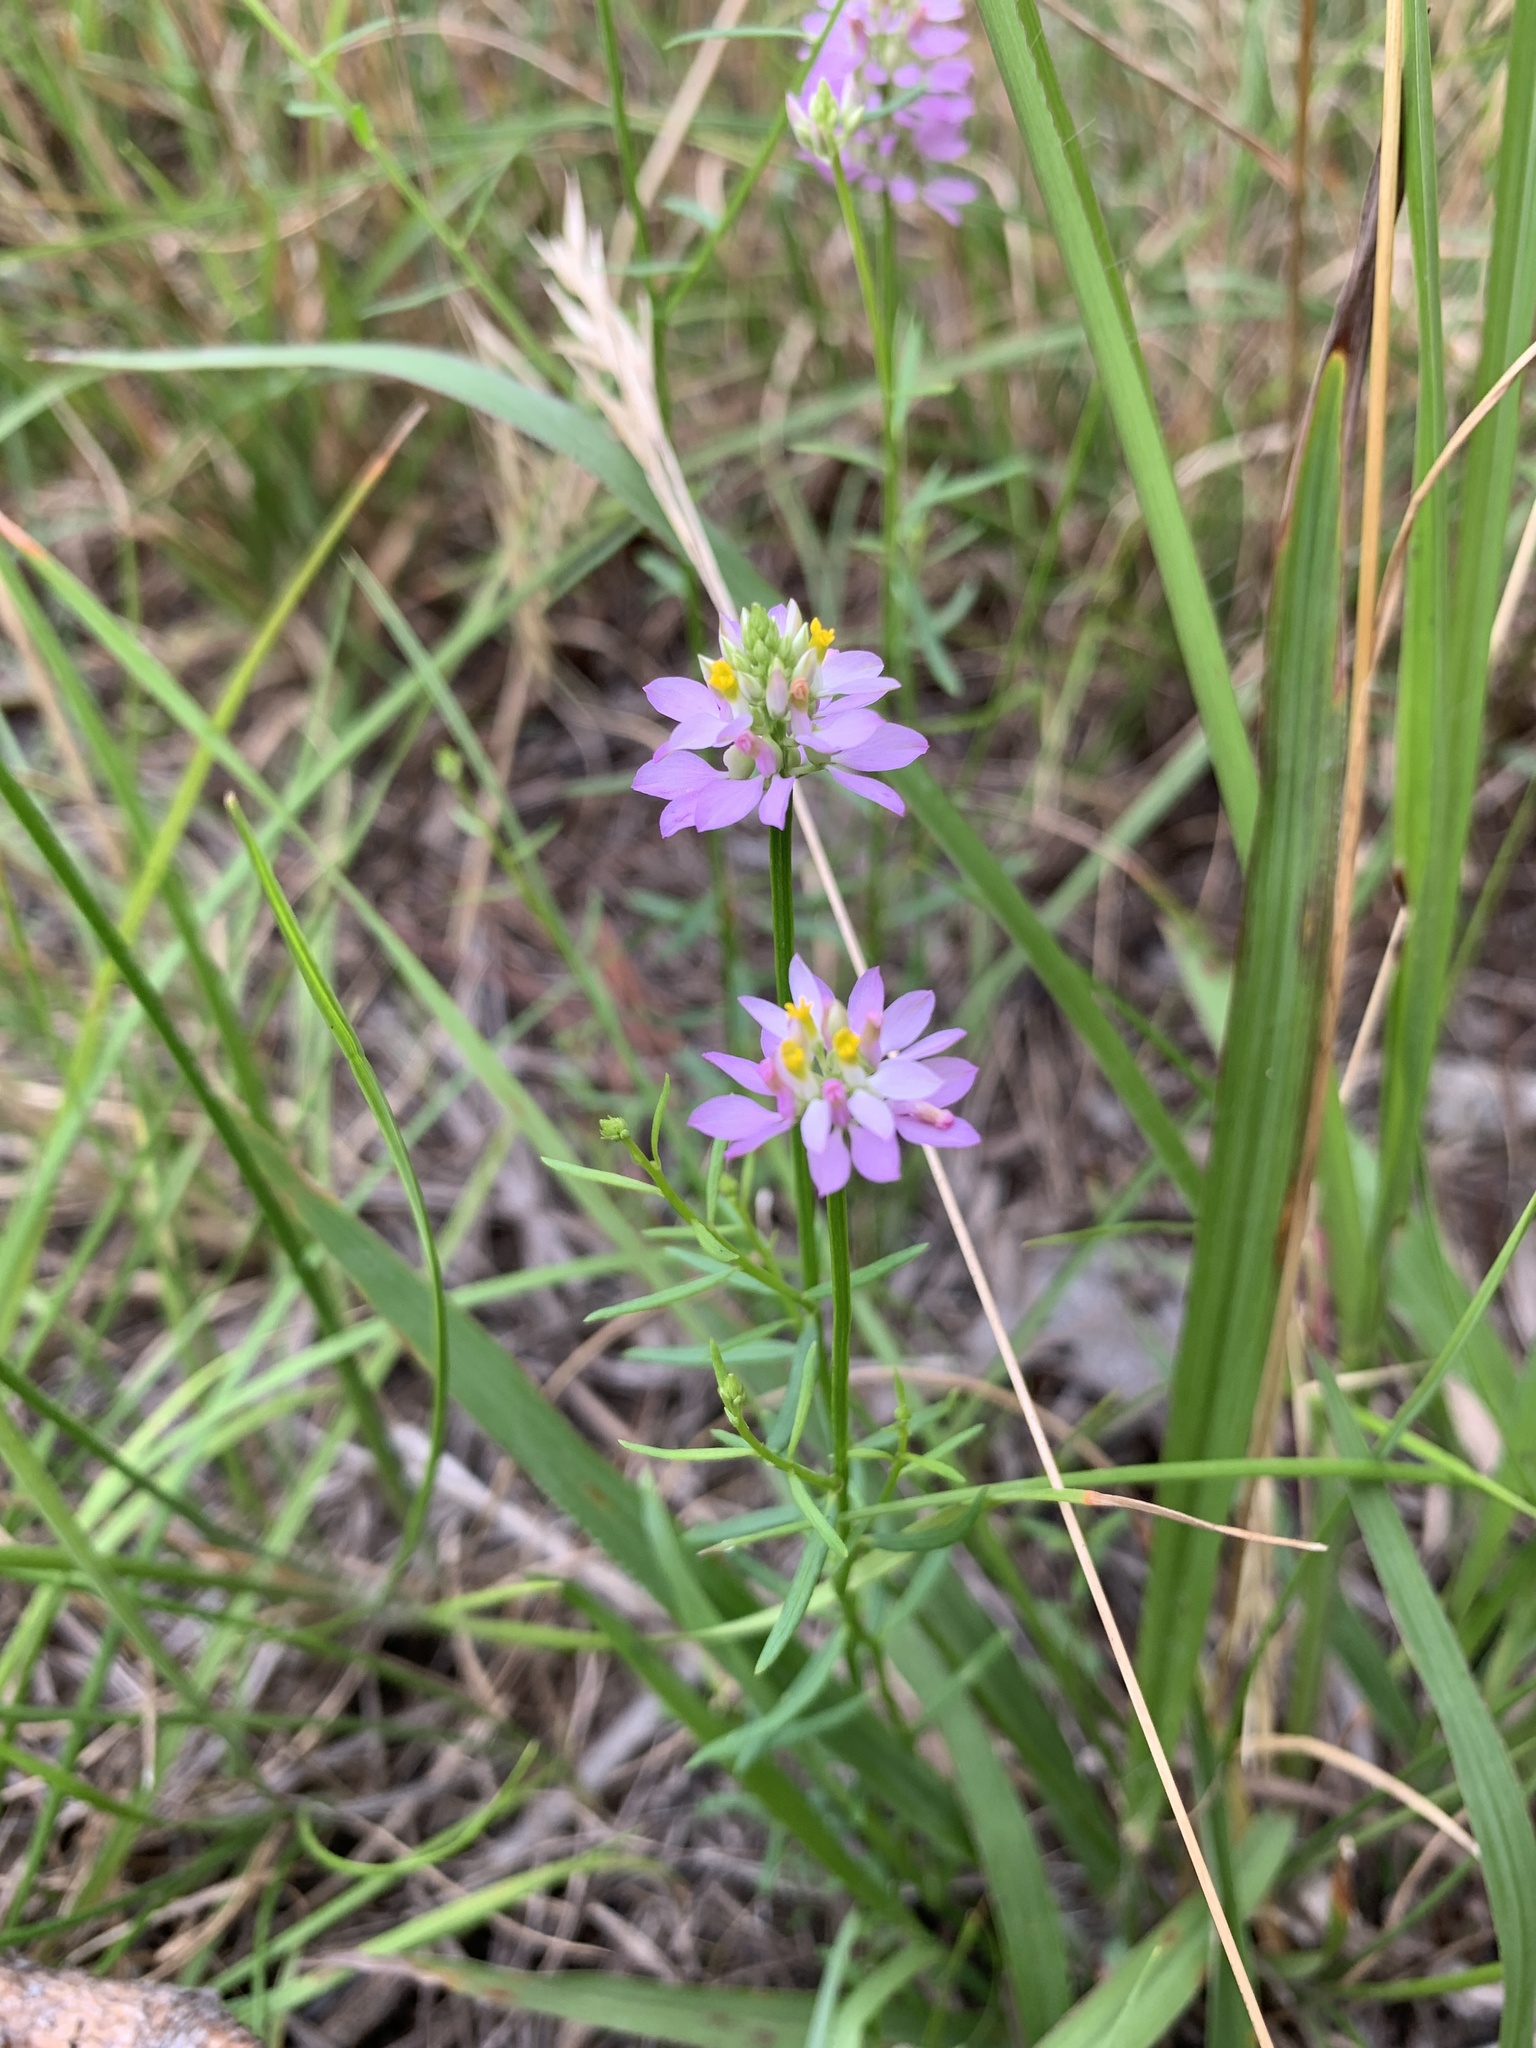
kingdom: Plantae
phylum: Tracheophyta
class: Magnoliopsida
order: Fabales
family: Polygalaceae
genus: Polygala
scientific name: Polygala curtissii
